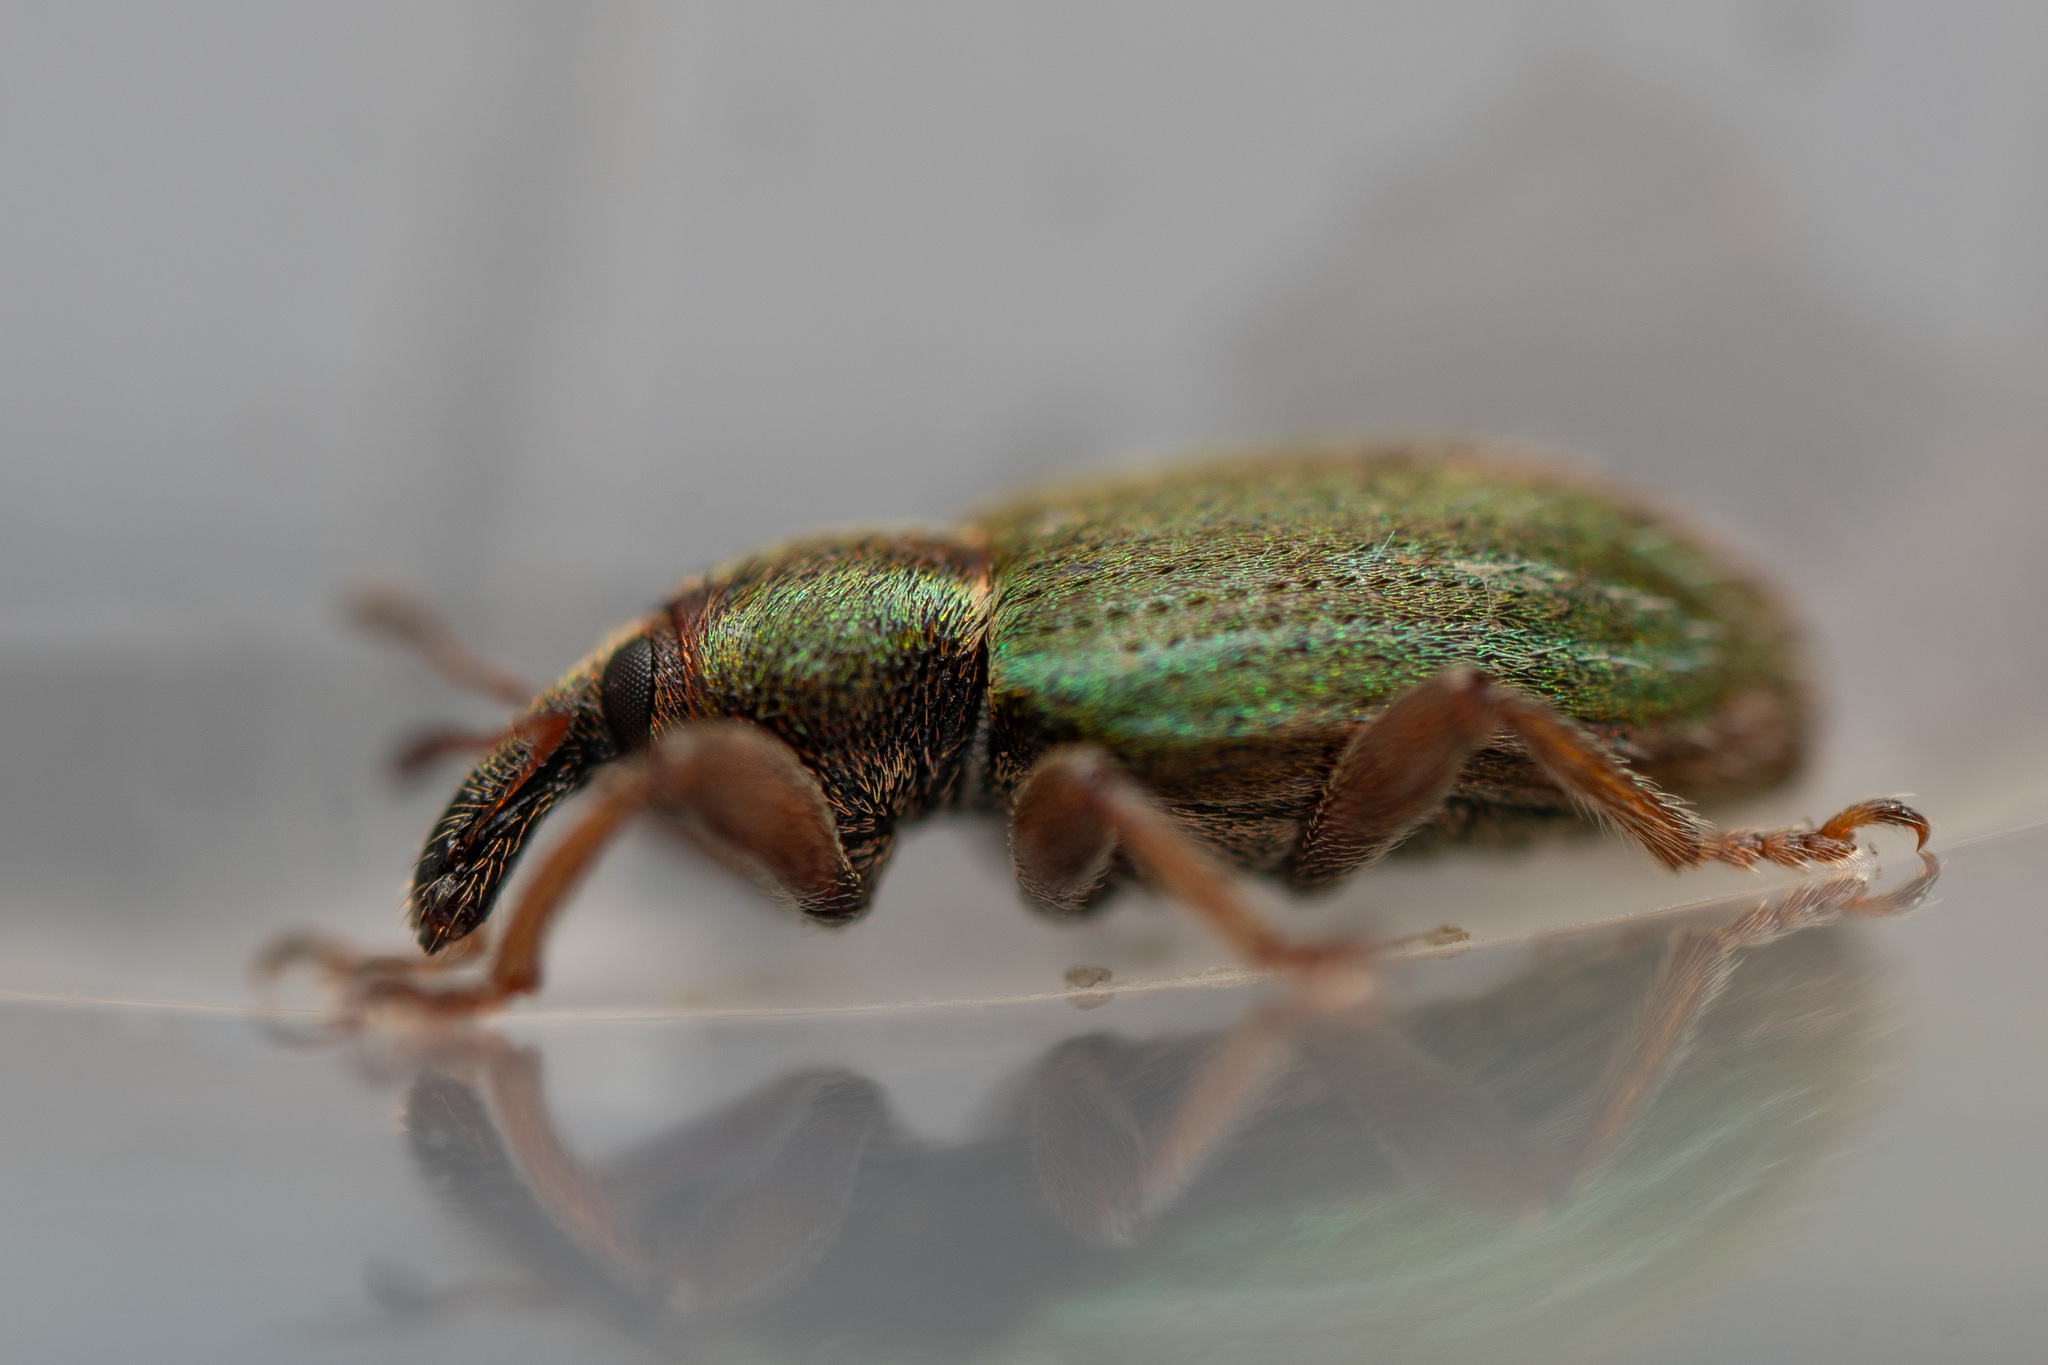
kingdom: Animalia
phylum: Arthropoda
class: Insecta
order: Coleoptera
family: Curculionidae
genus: Hypera
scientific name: Hypera nigrirostris
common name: Black-beaked green weevil
